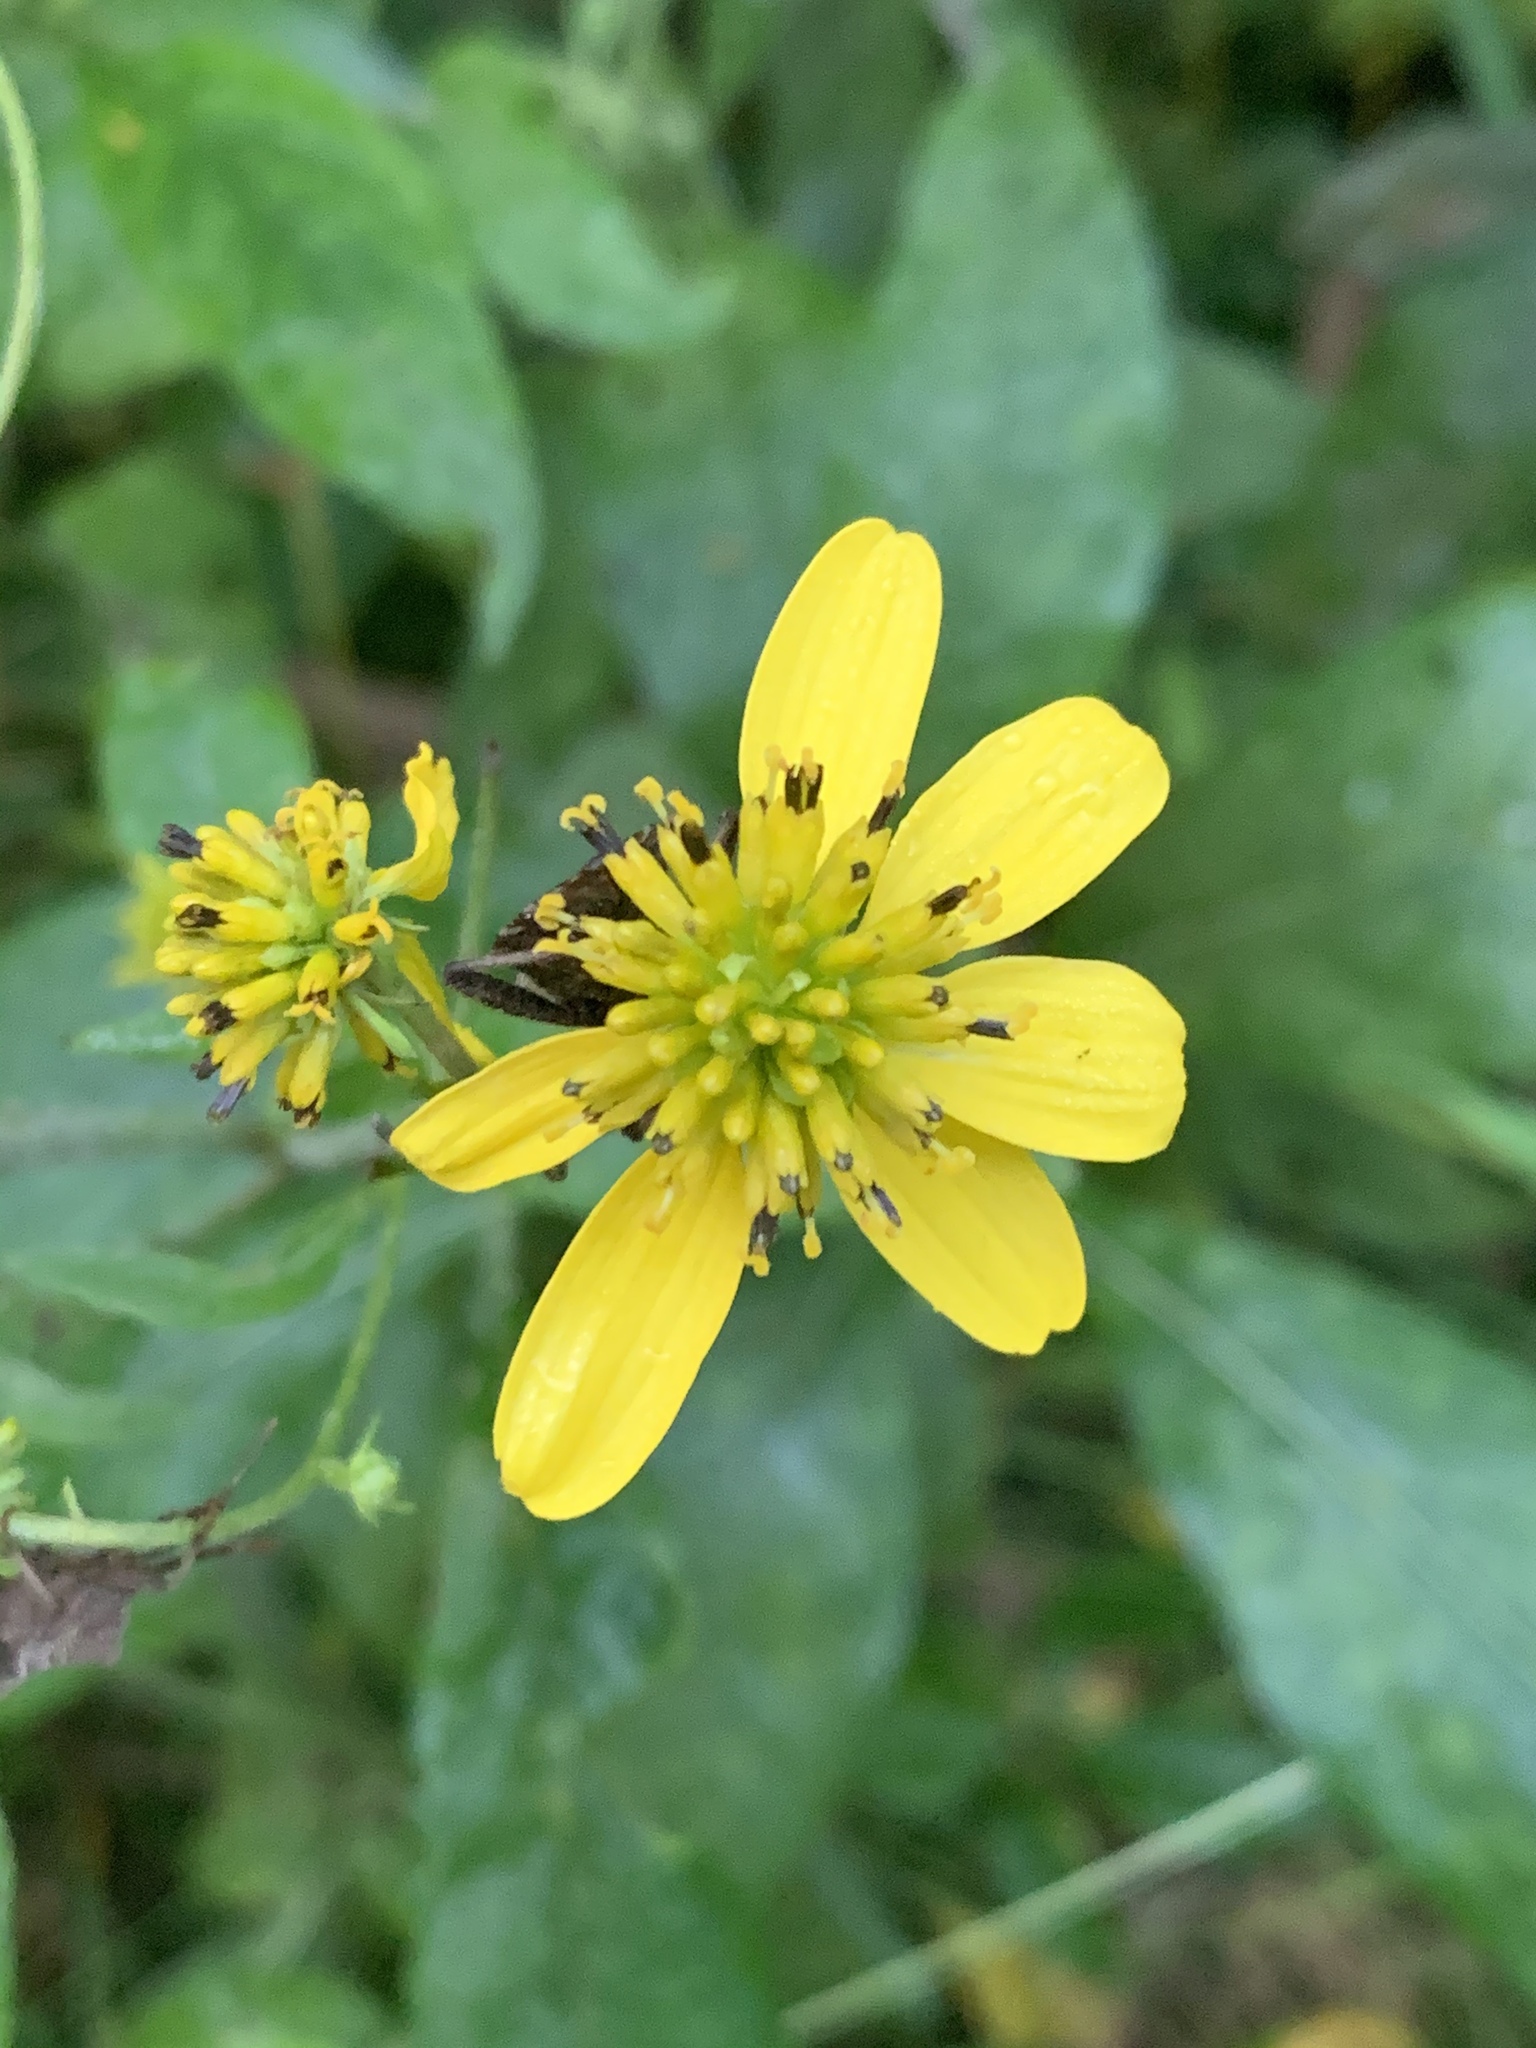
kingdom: Plantae
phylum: Tracheophyta
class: Magnoliopsida
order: Asterales
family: Asteraceae
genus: Verbesina
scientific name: Verbesina alternifolia
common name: Wingstem
